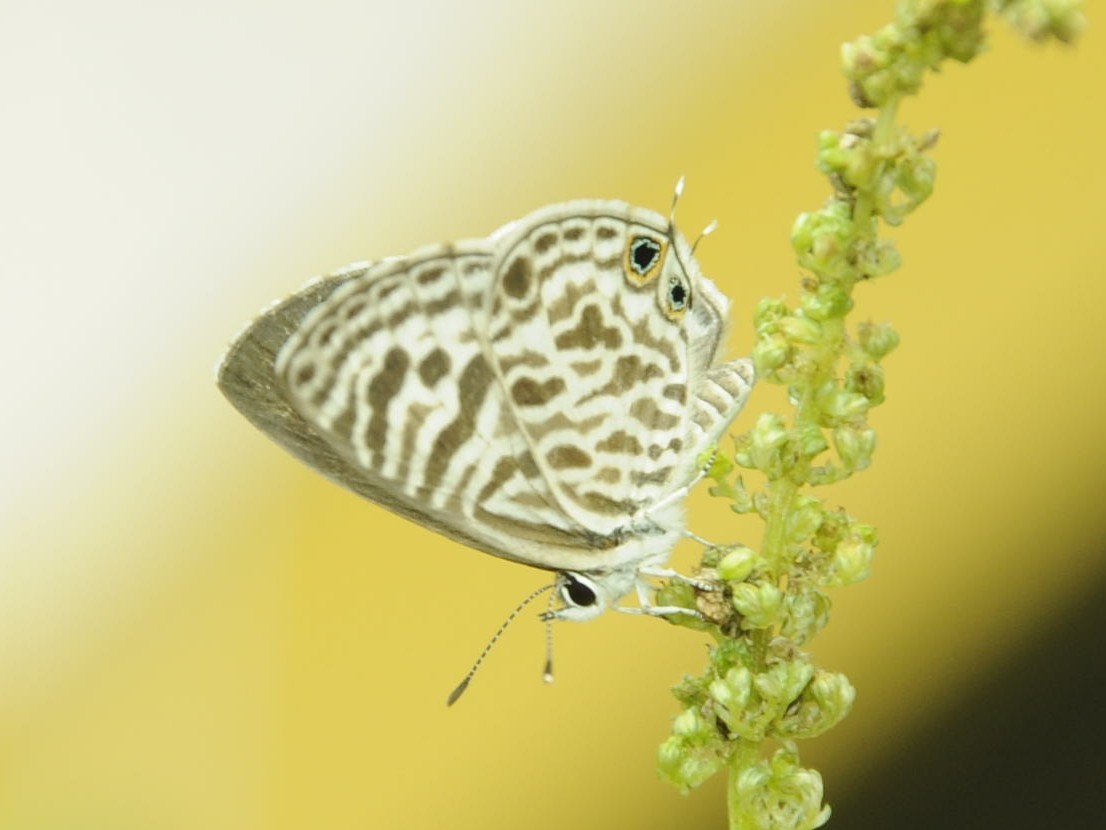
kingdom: Animalia
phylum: Arthropoda
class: Insecta
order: Lepidoptera
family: Lycaenidae
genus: Leptotes
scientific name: Leptotes plinius
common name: Zebra blue
